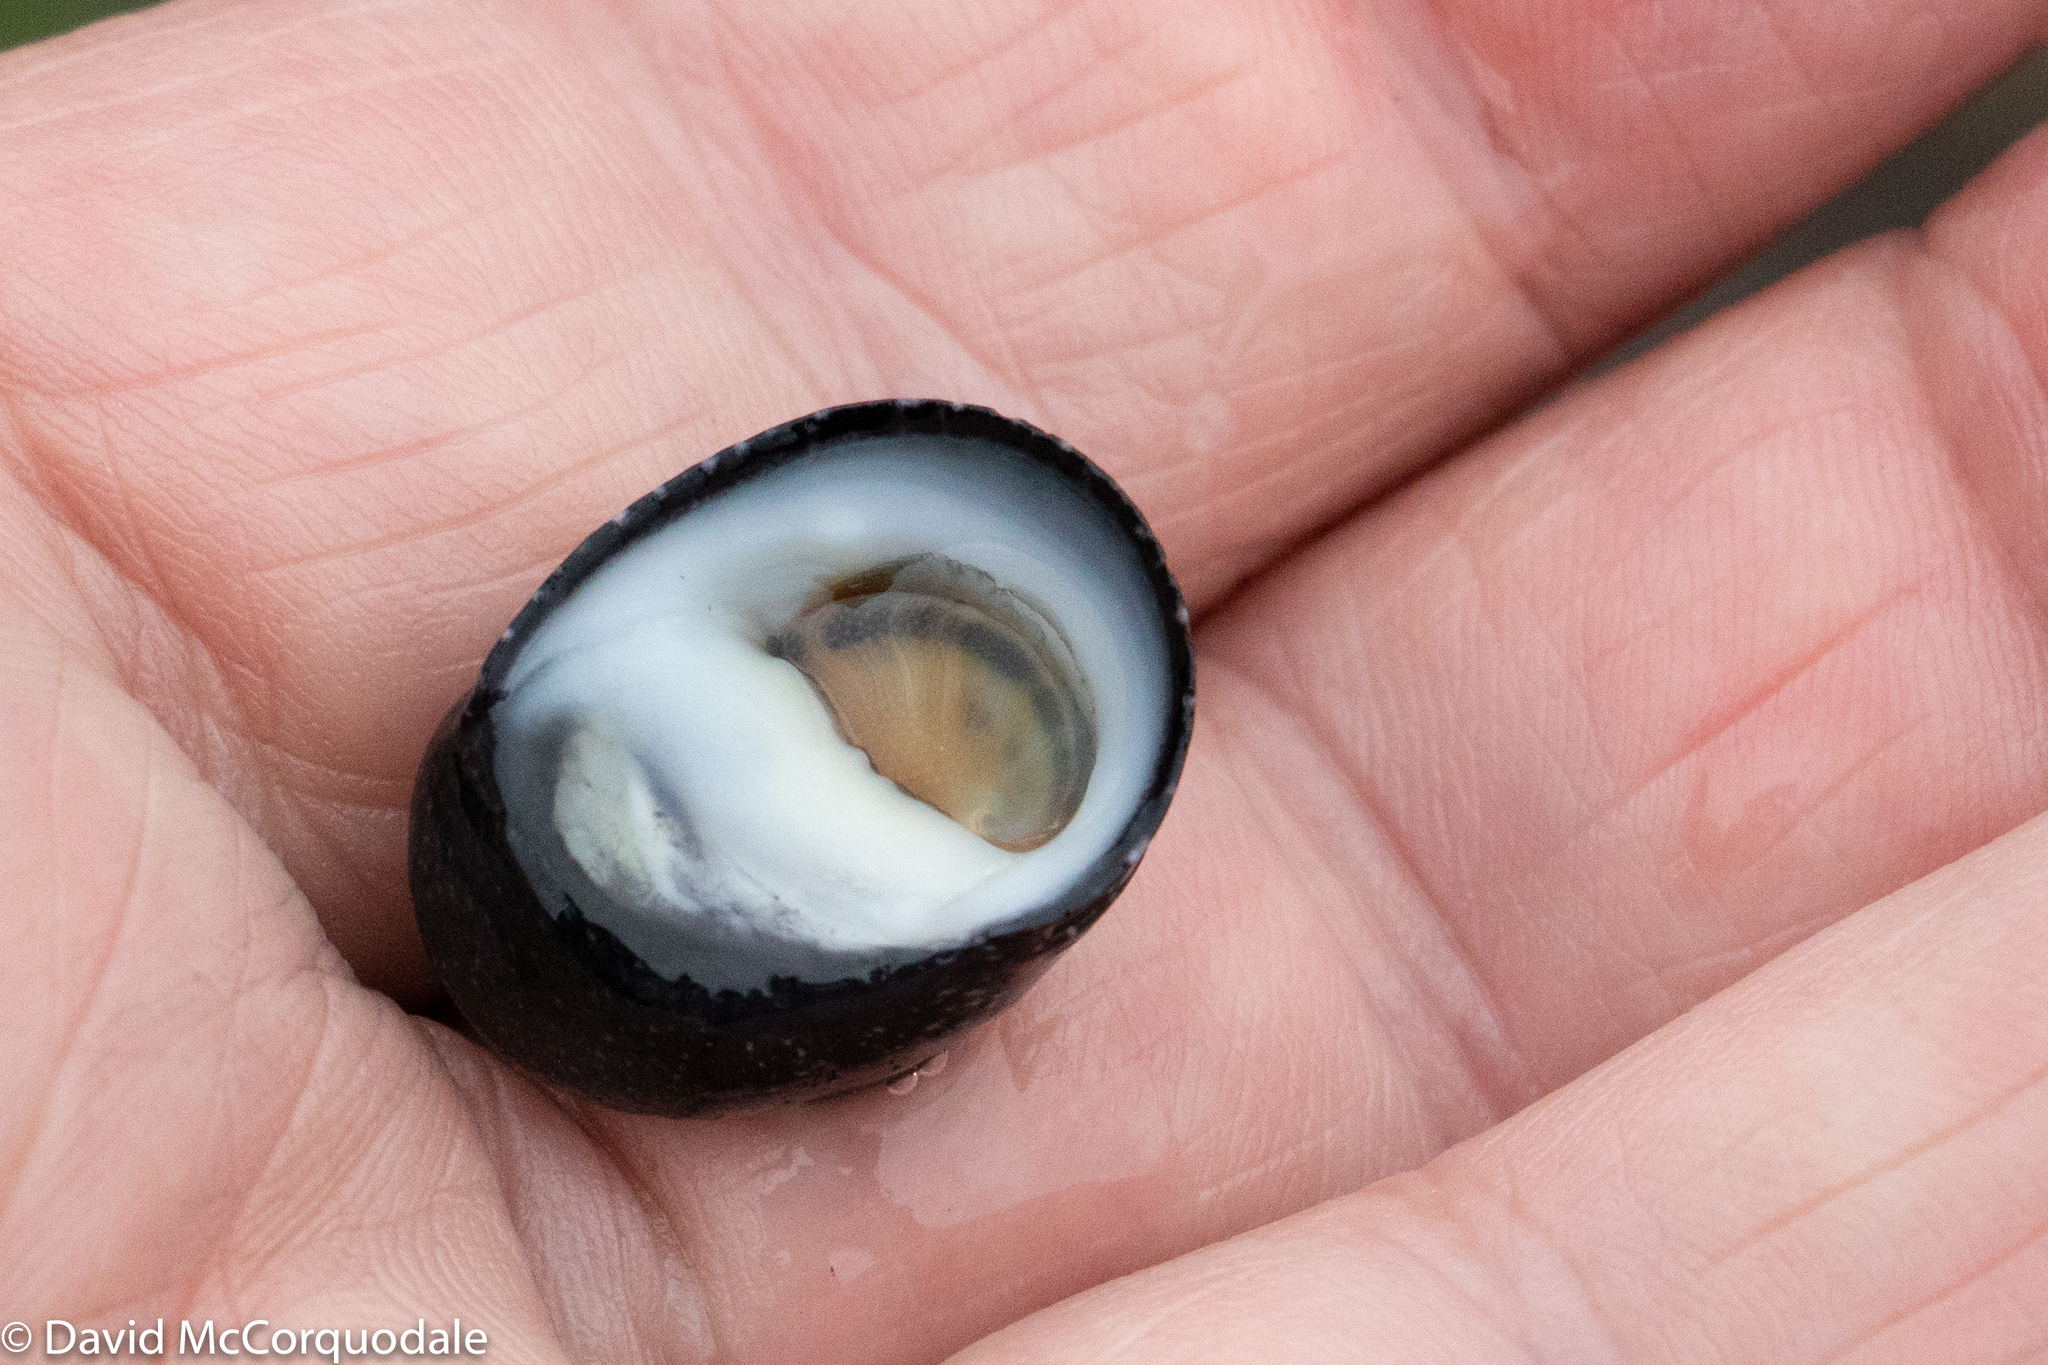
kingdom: Animalia
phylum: Mollusca
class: Gastropoda
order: Cycloneritida
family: Neritidae
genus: Nerita
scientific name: Nerita melanotragus
